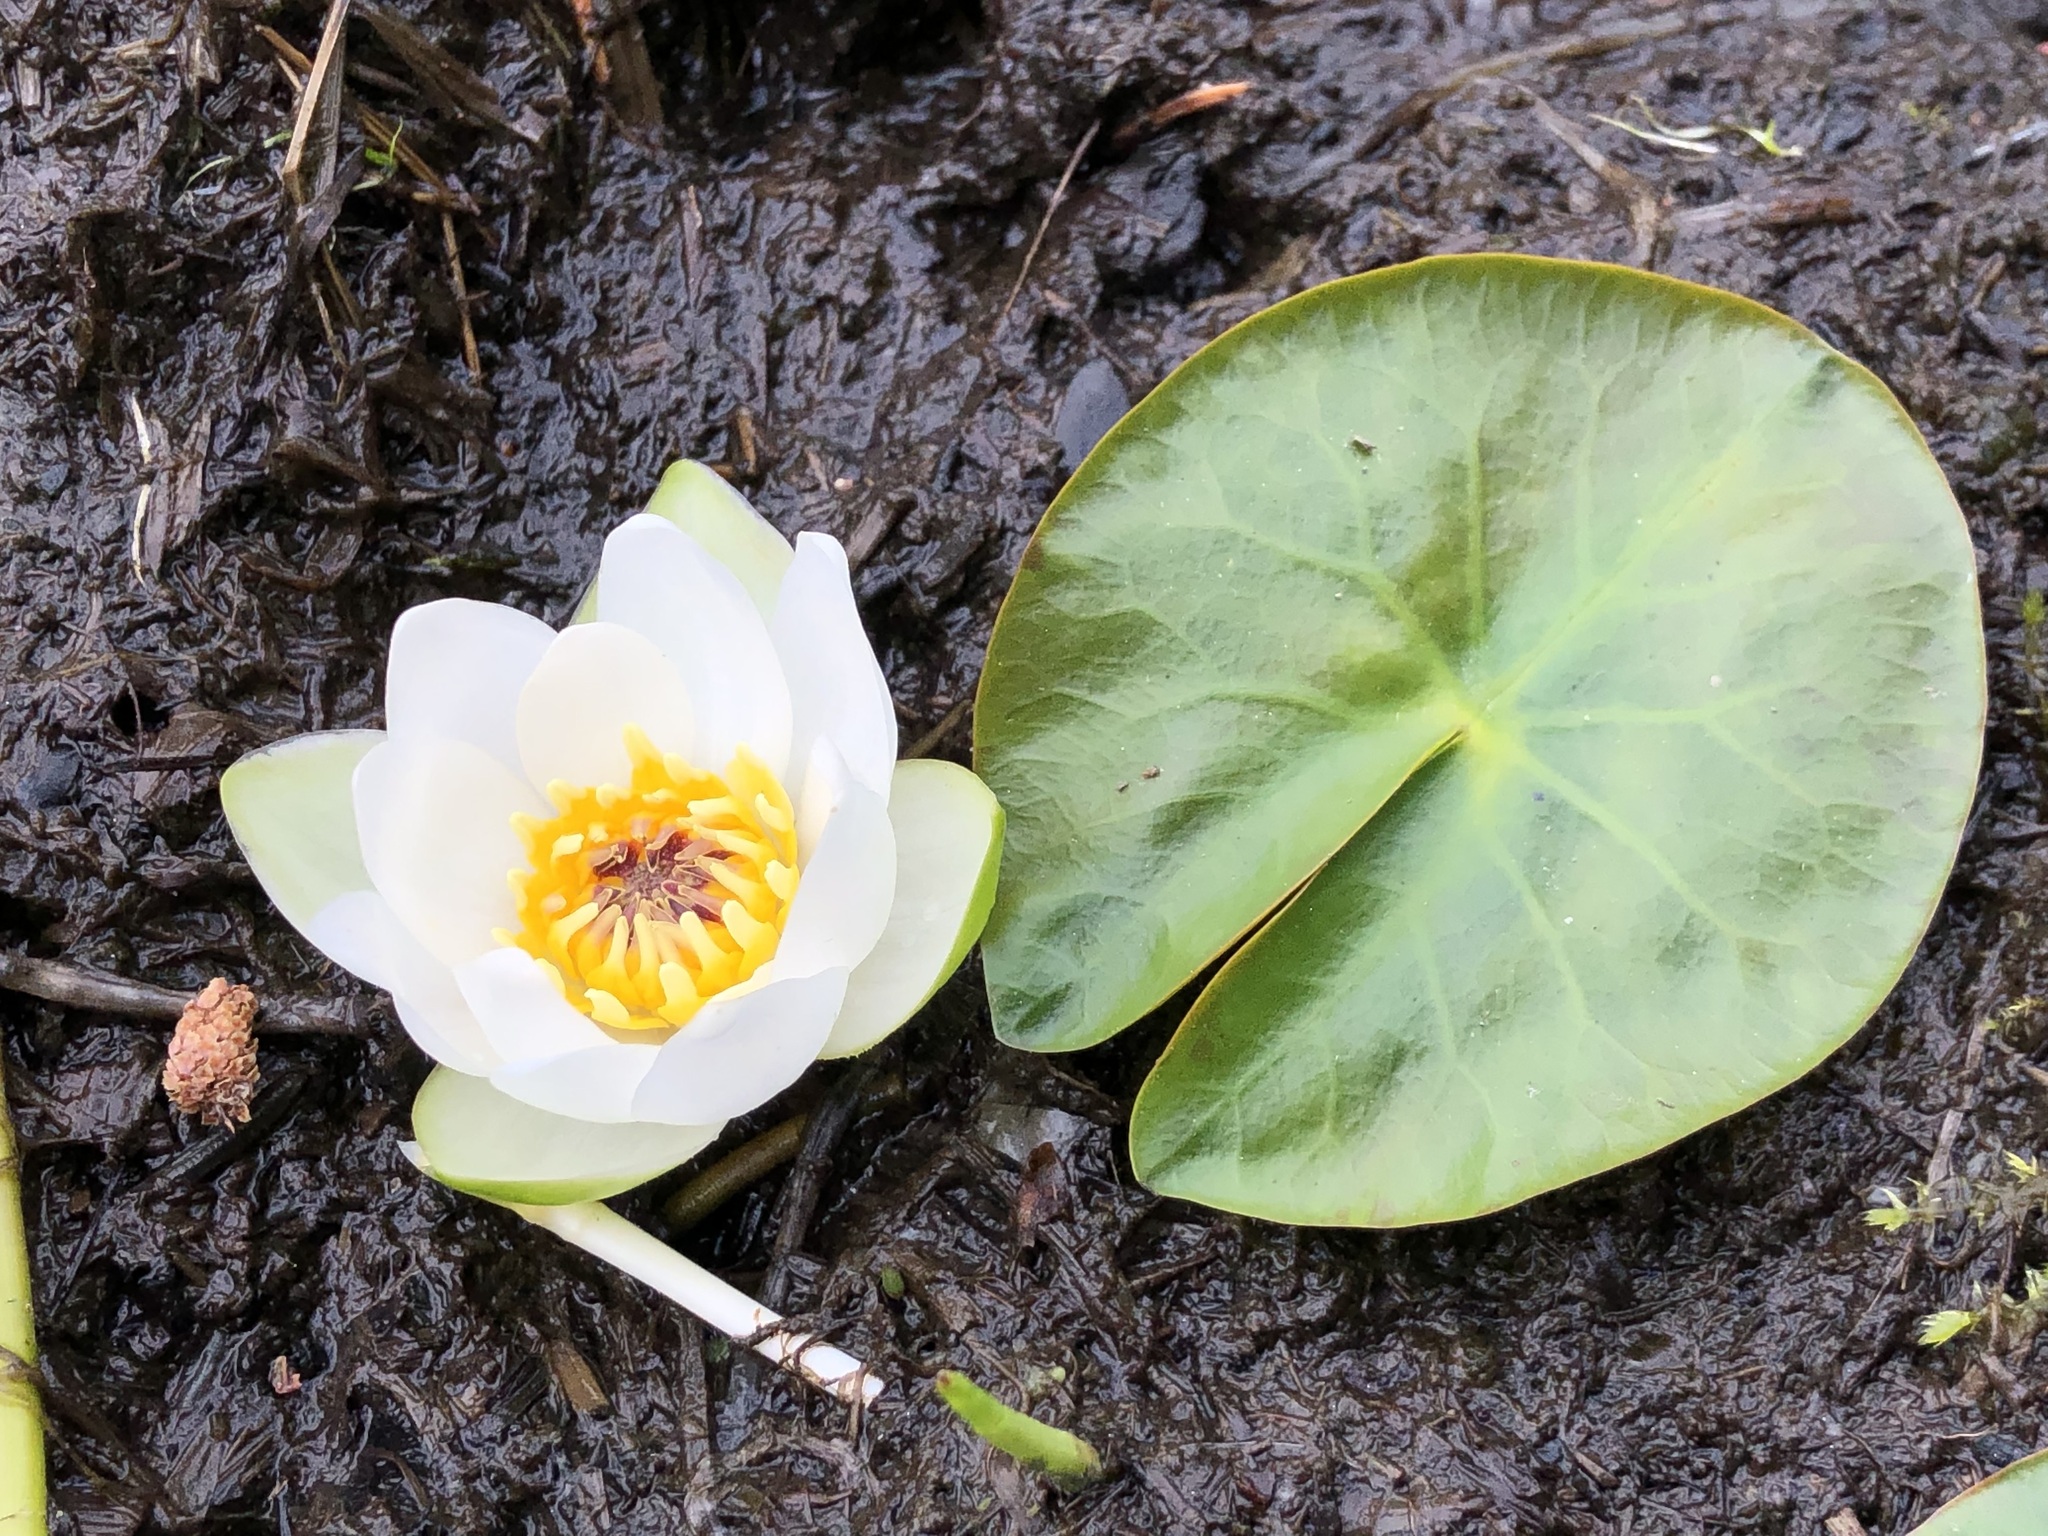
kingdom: Plantae
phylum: Tracheophyta
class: Magnoliopsida
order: Nymphaeales
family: Nymphaeaceae
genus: Nymphaea
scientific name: Nymphaea tetragona
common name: Pygmy water-lily
